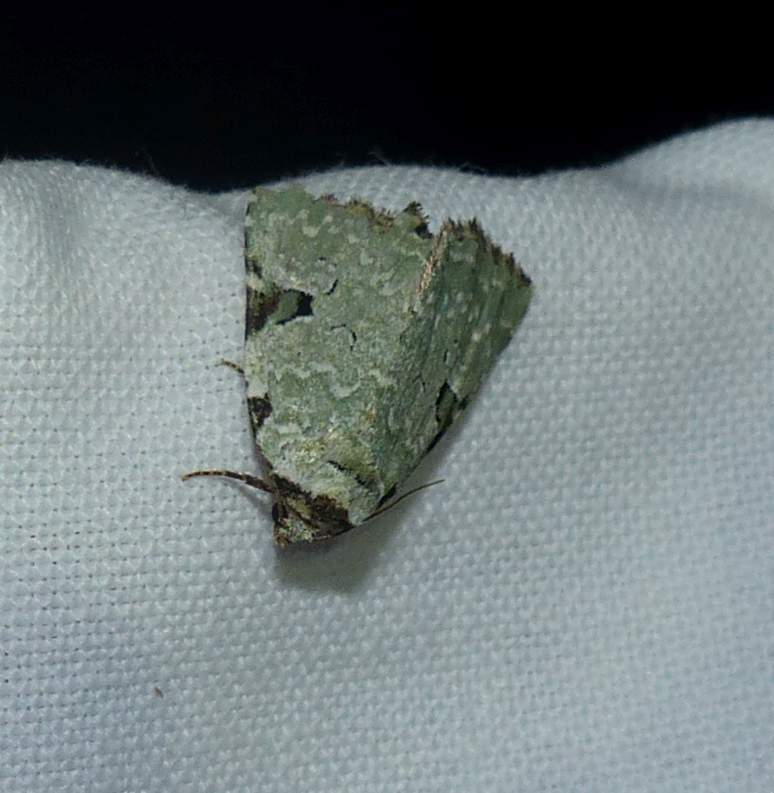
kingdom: Animalia
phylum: Arthropoda
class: Insecta
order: Lepidoptera
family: Noctuidae
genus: Leuconycta
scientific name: Leuconycta diphteroides
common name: Green leuconycta moth
